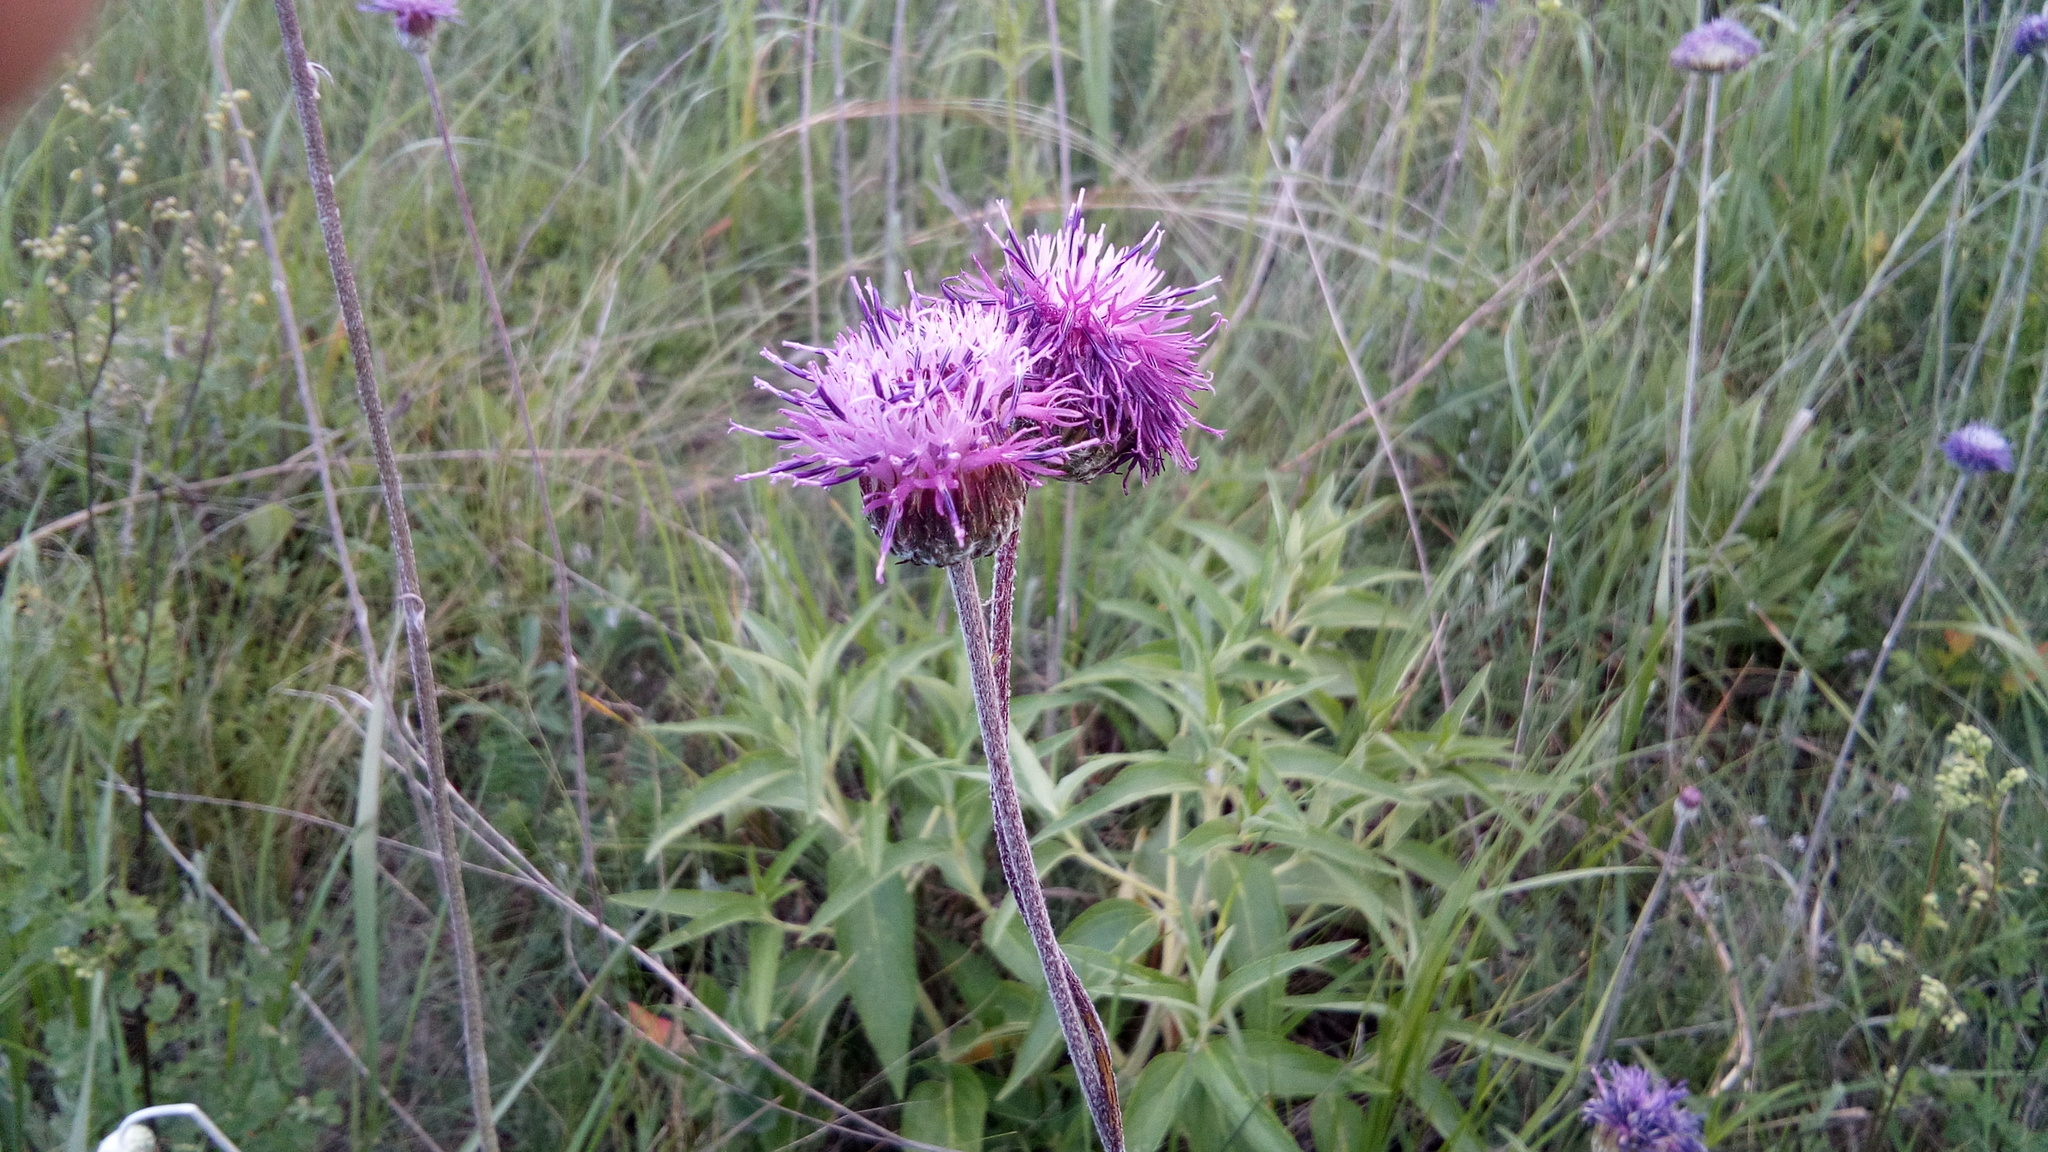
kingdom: Plantae
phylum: Tracheophyta
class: Magnoliopsida
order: Asterales
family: Asteraceae
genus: Jurinea
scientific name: Jurinea arachnoidea
